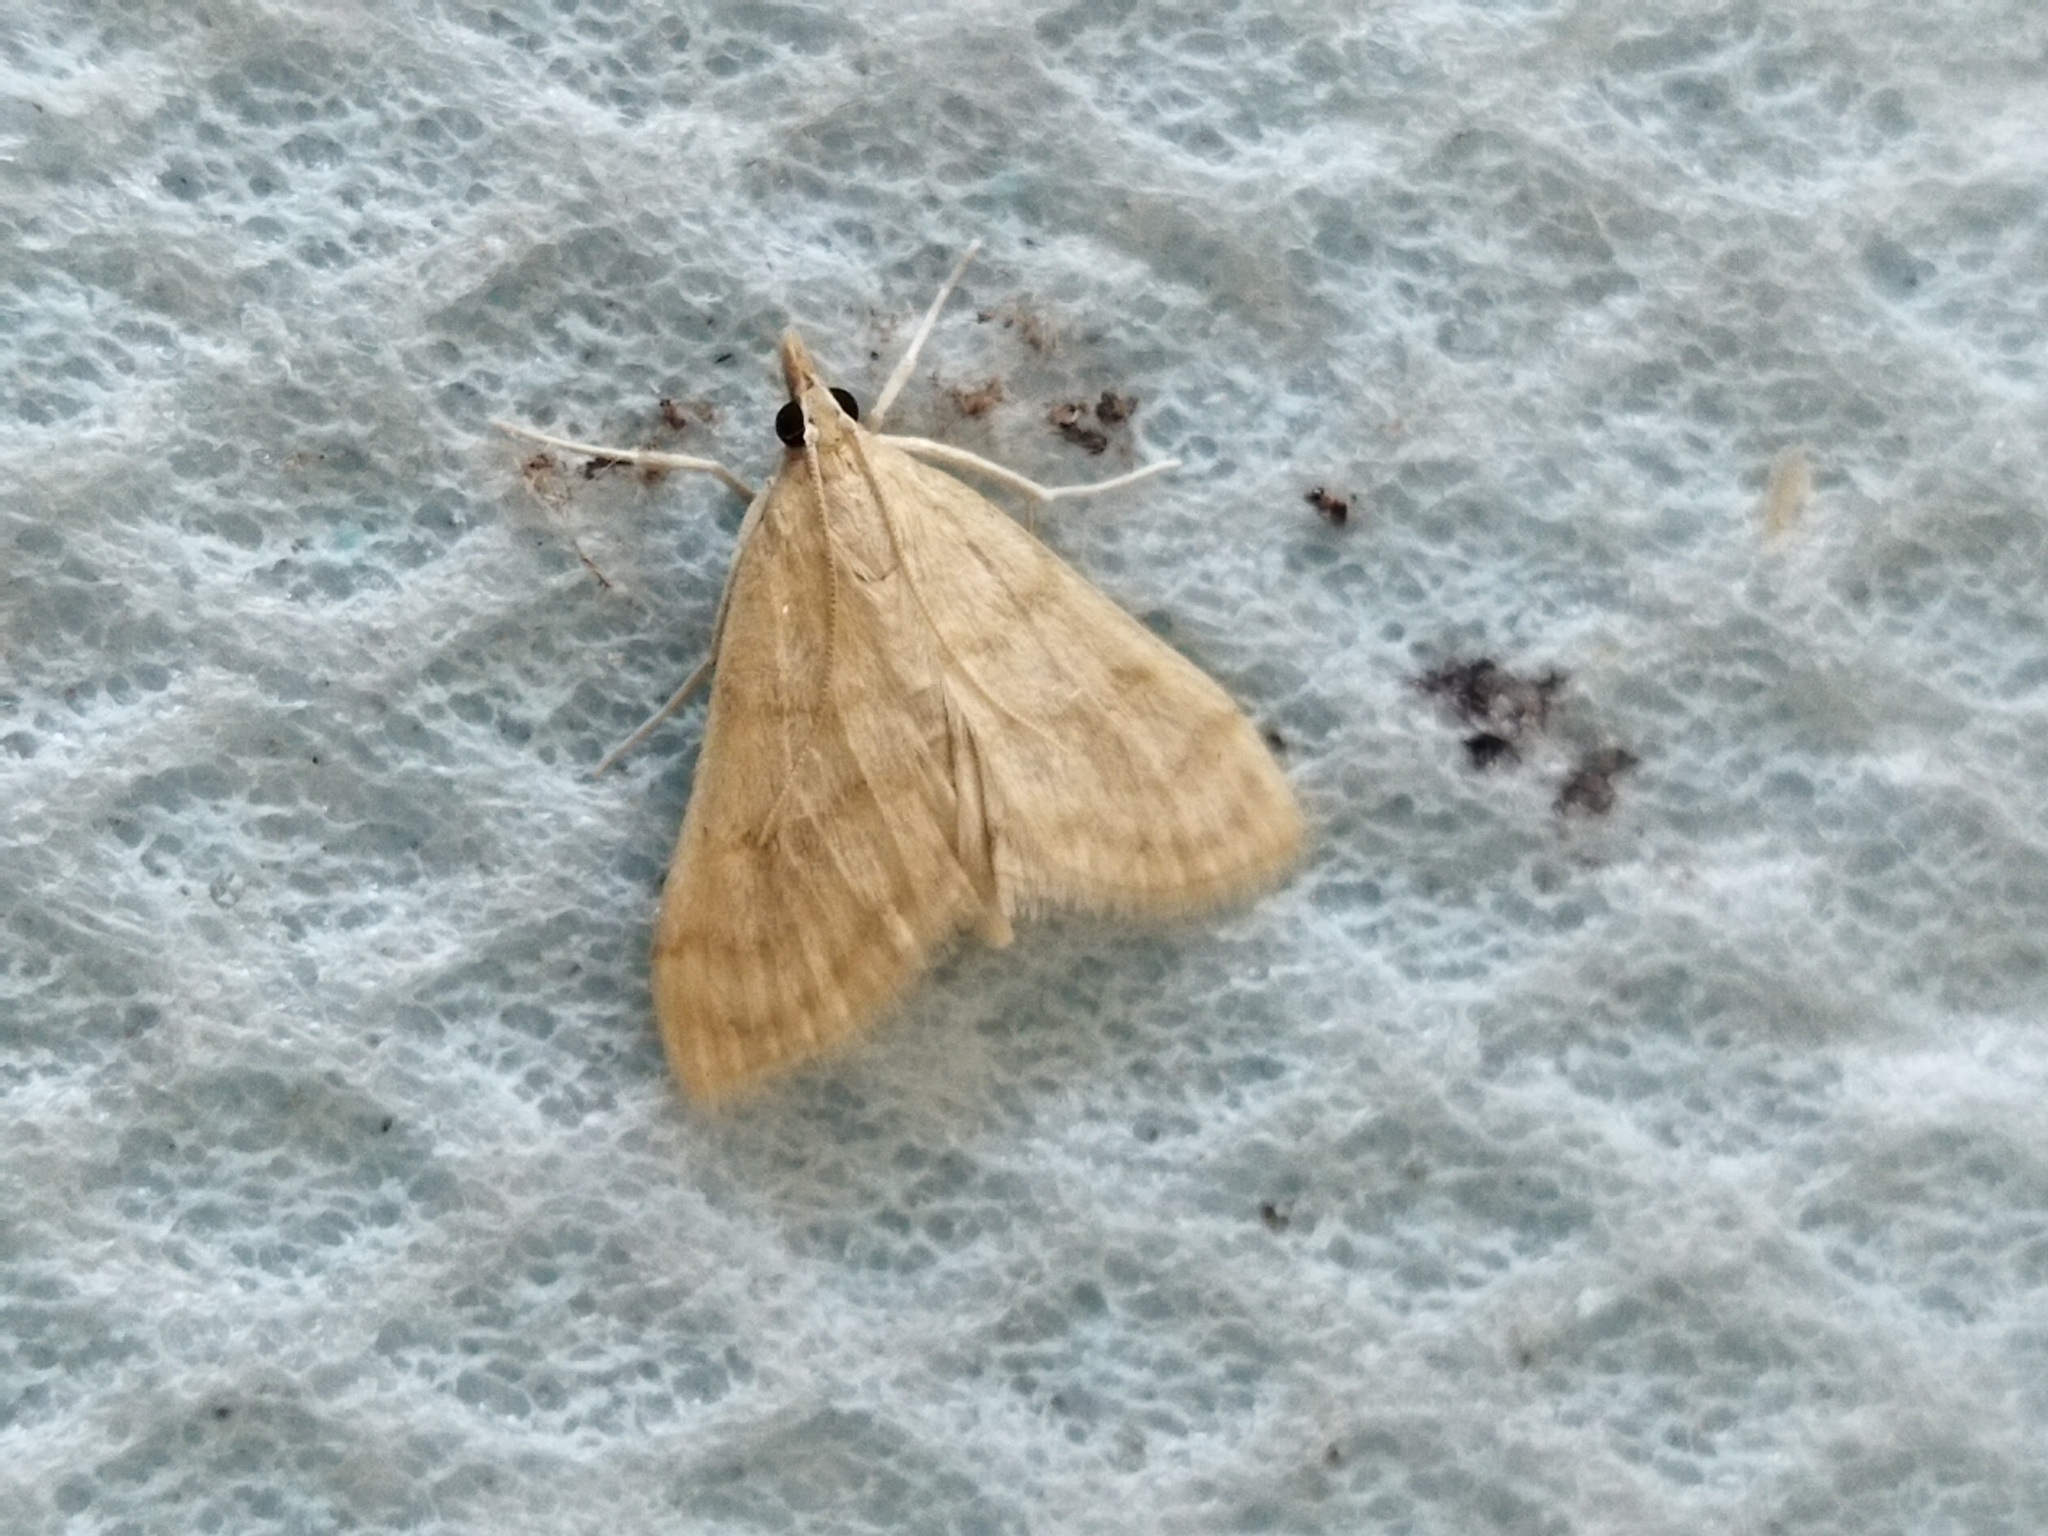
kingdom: Animalia
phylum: Arthropoda
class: Insecta
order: Lepidoptera
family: Crambidae
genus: Paracorsia
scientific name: Paracorsia repandalis
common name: Mullein moth
